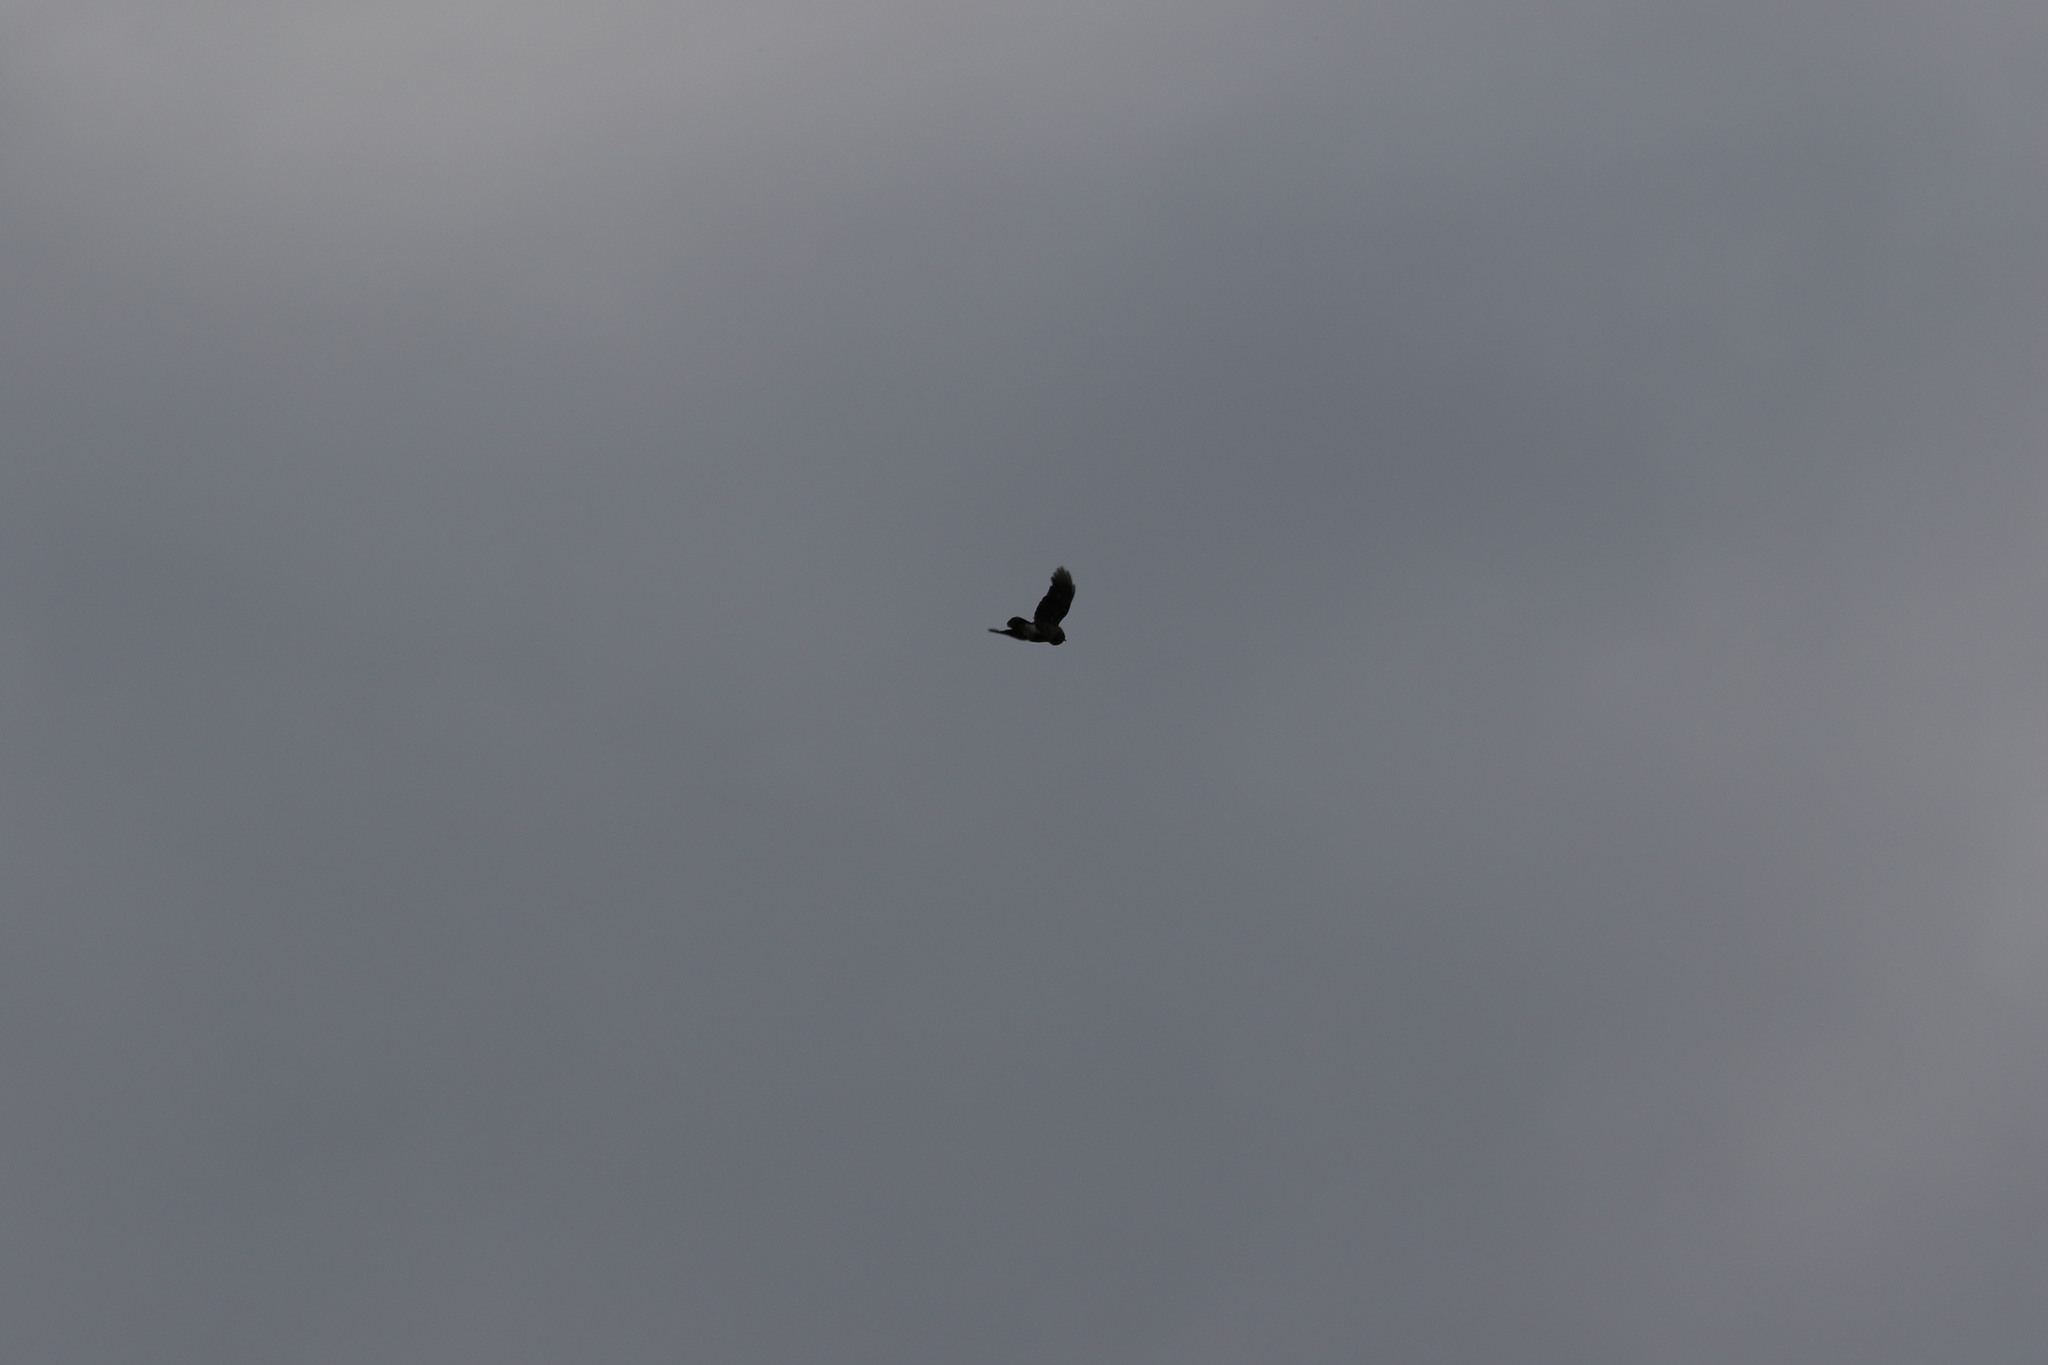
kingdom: Animalia
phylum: Chordata
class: Aves
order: Passeriformes
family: Corvidae
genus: Nucifraga
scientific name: Nucifraga caryocatactes
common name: Spotted nutcracker
